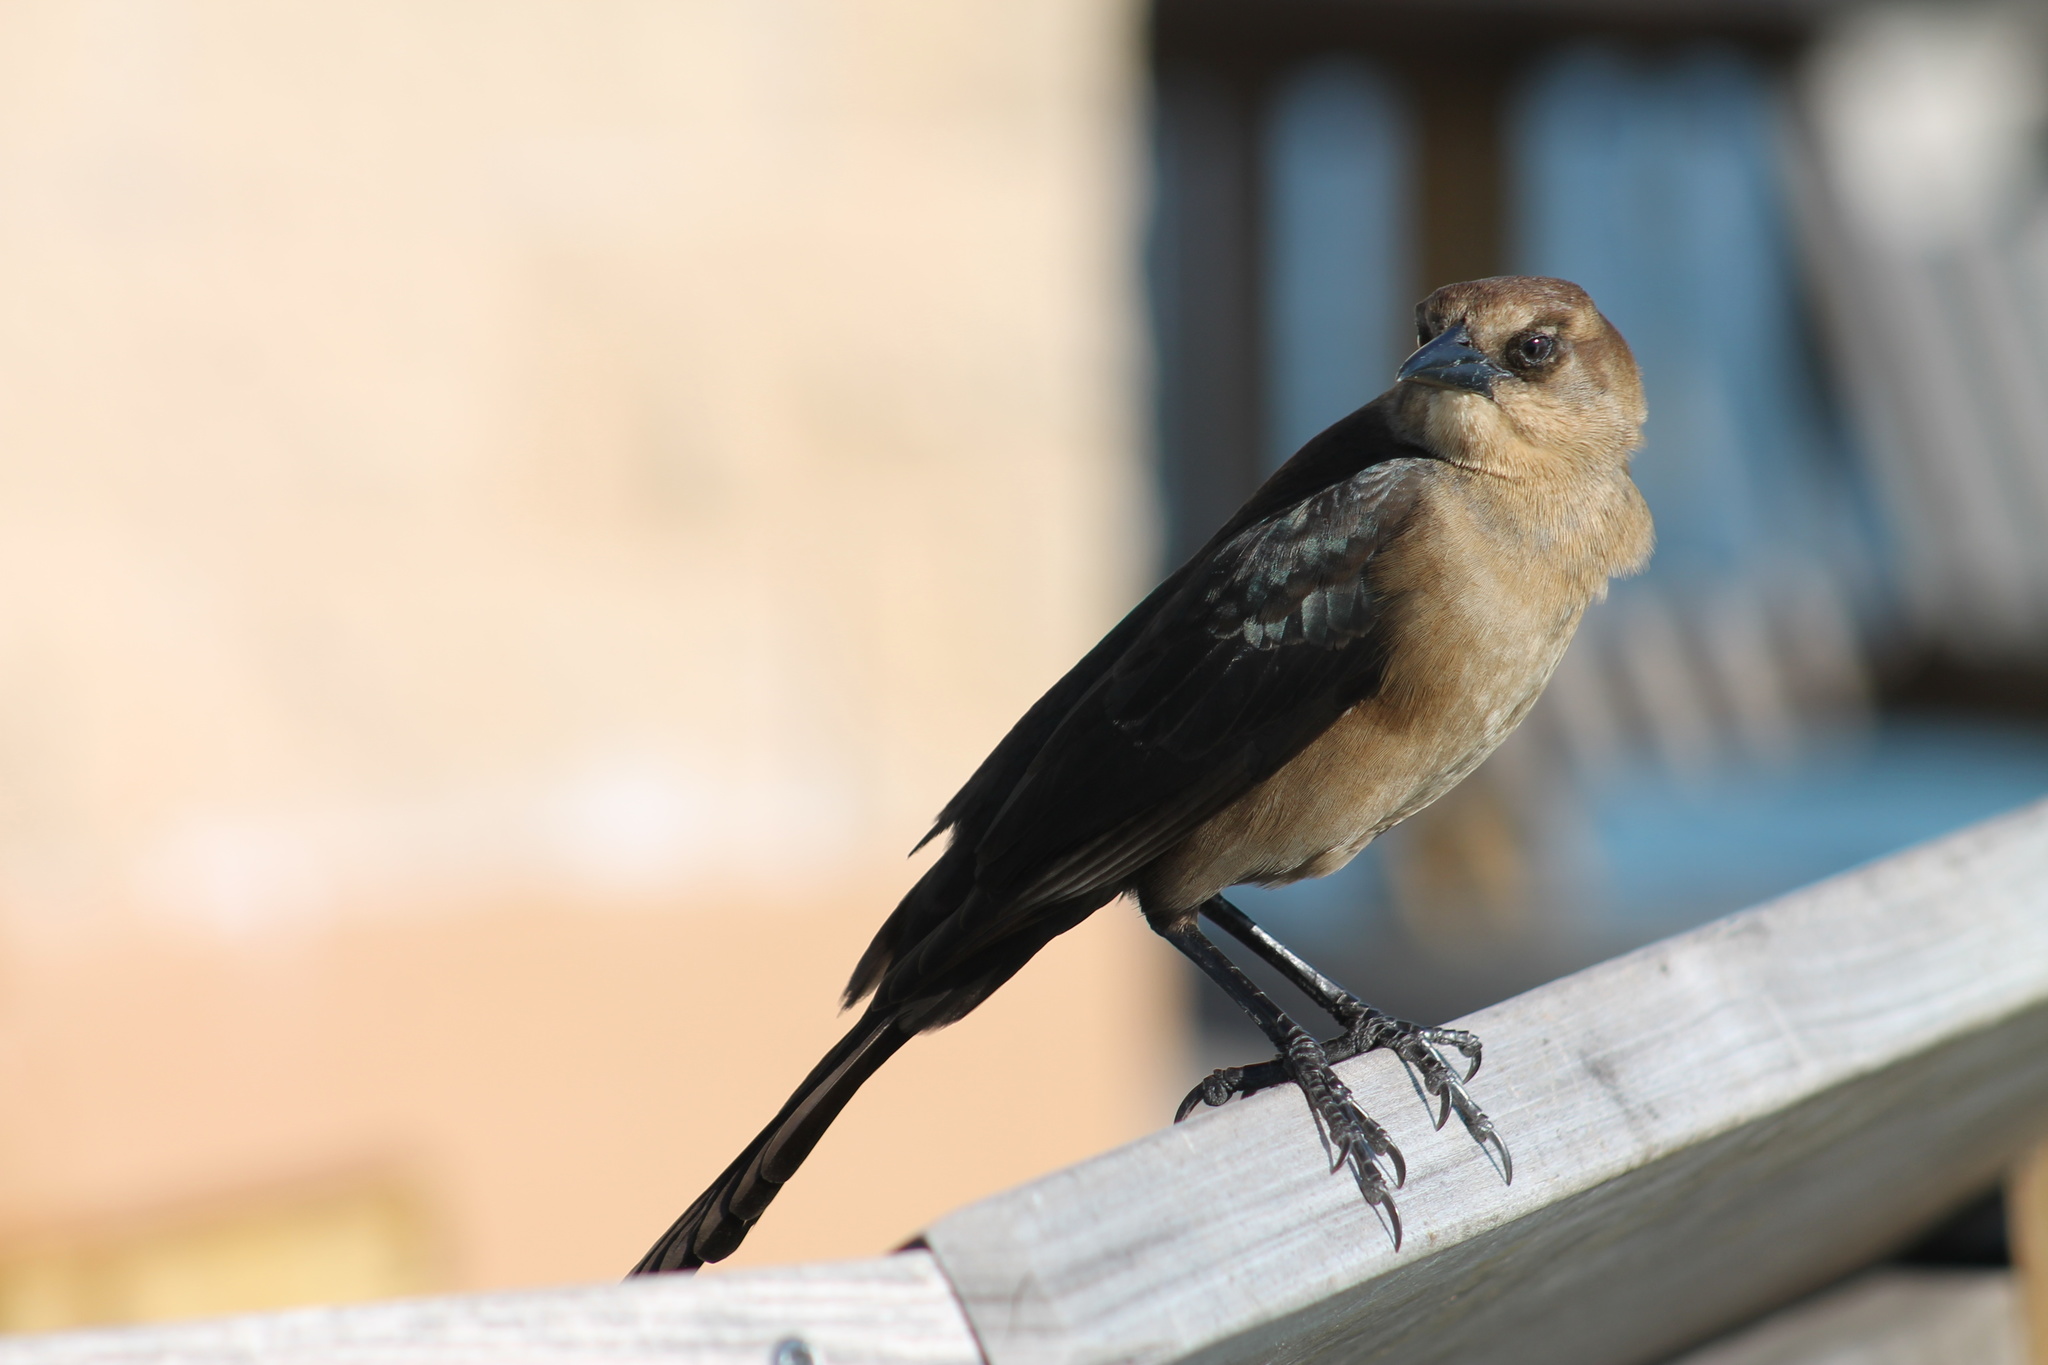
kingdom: Animalia
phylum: Chordata
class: Aves
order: Passeriformes
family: Icteridae
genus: Quiscalus
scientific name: Quiscalus major
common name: Boat-tailed grackle
